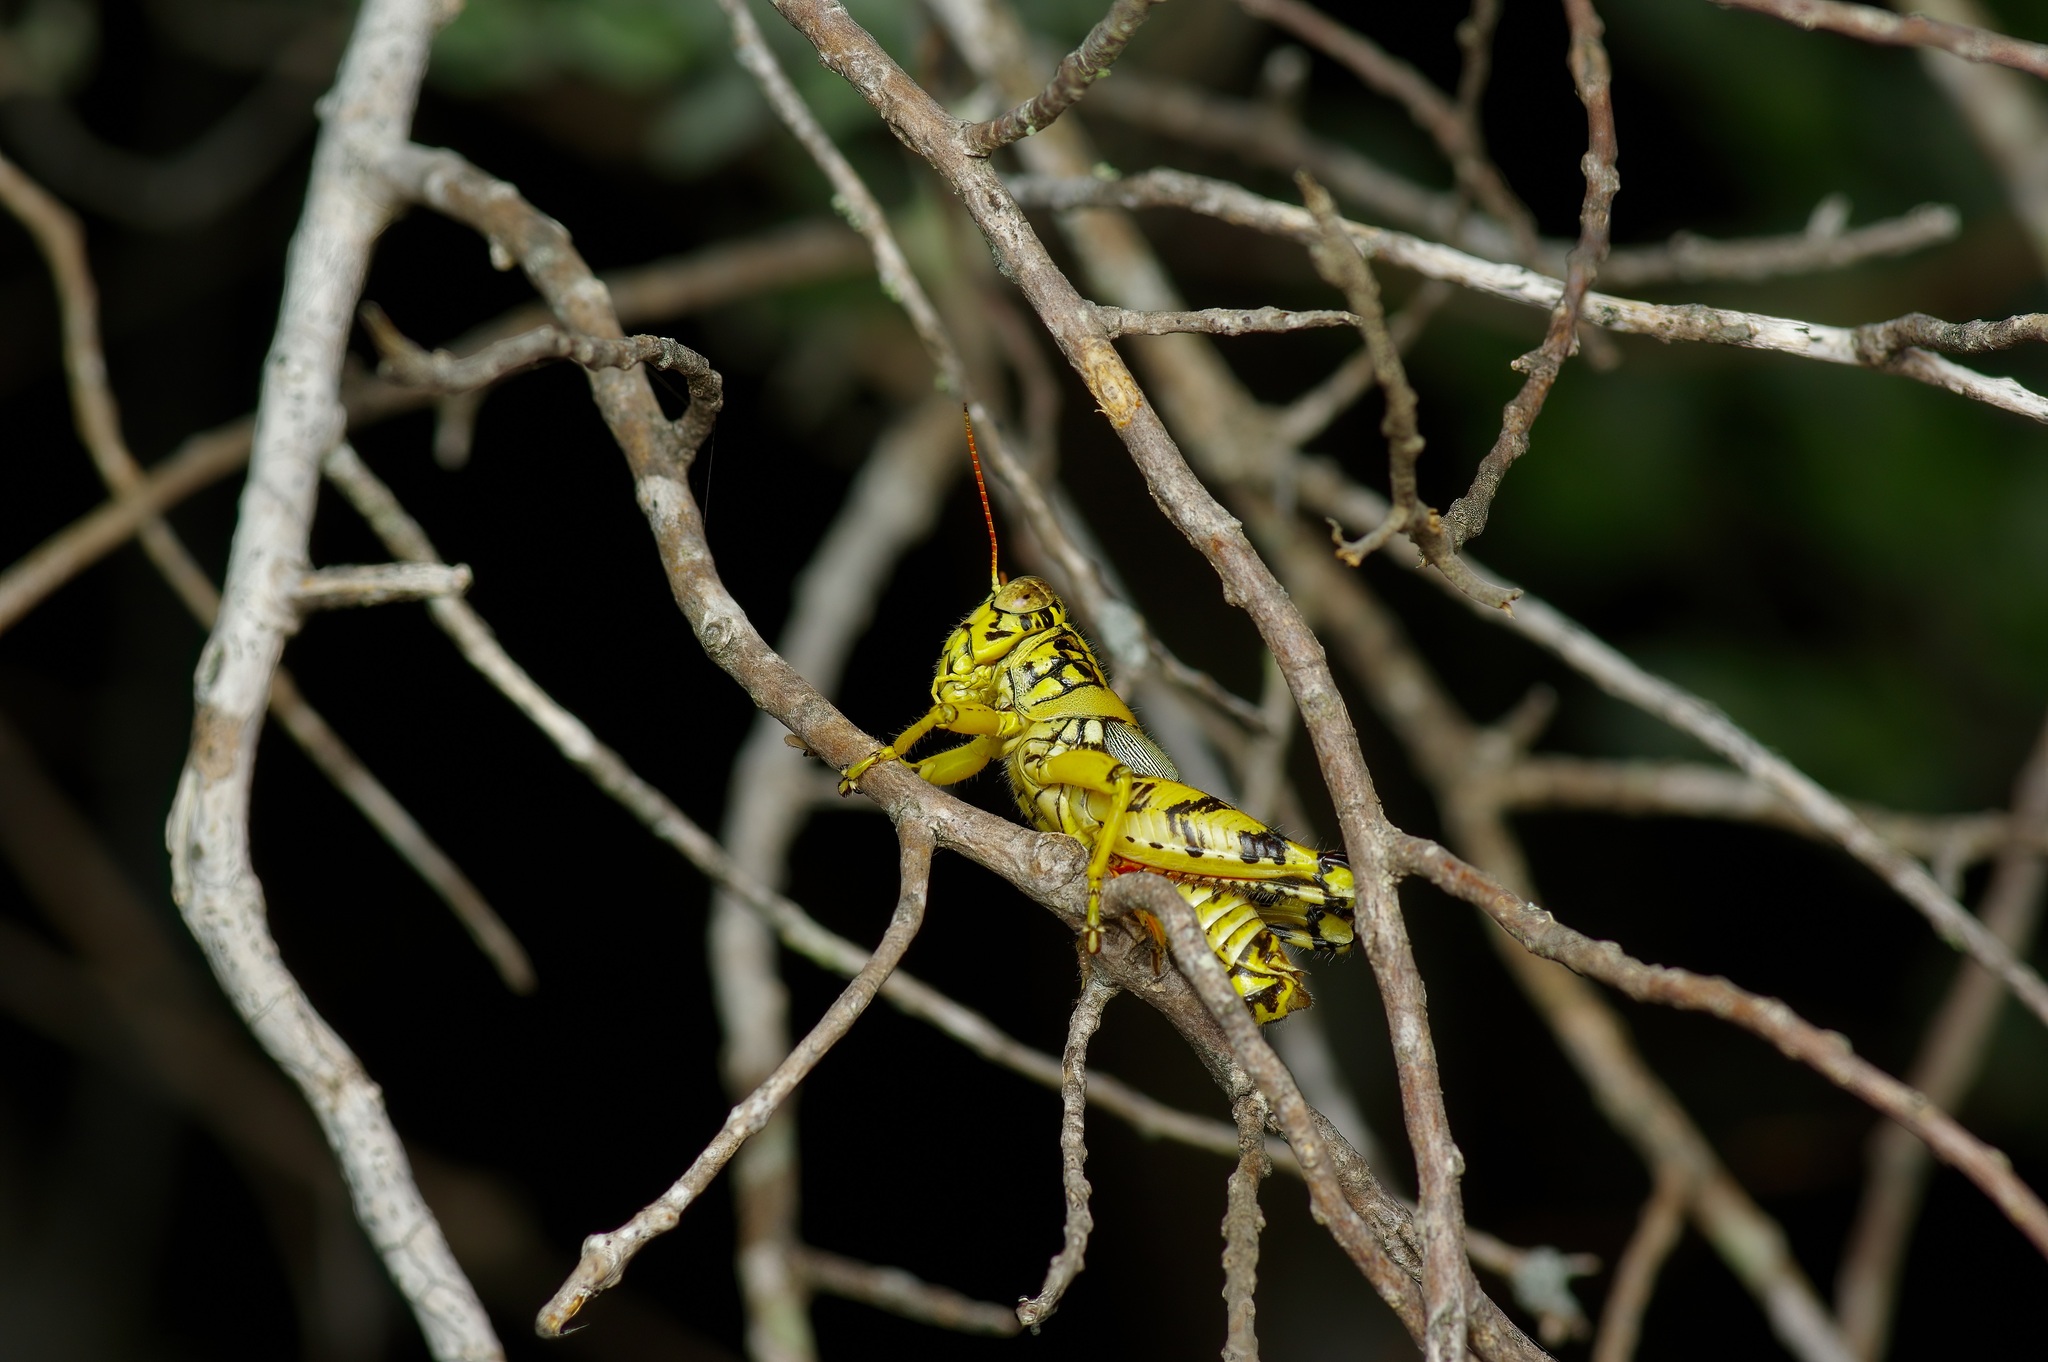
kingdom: Animalia
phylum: Arthropoda
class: Insecta
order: Orthoptera
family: Acrididae
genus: Agroecotettix
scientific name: Agroecotettix modestus
